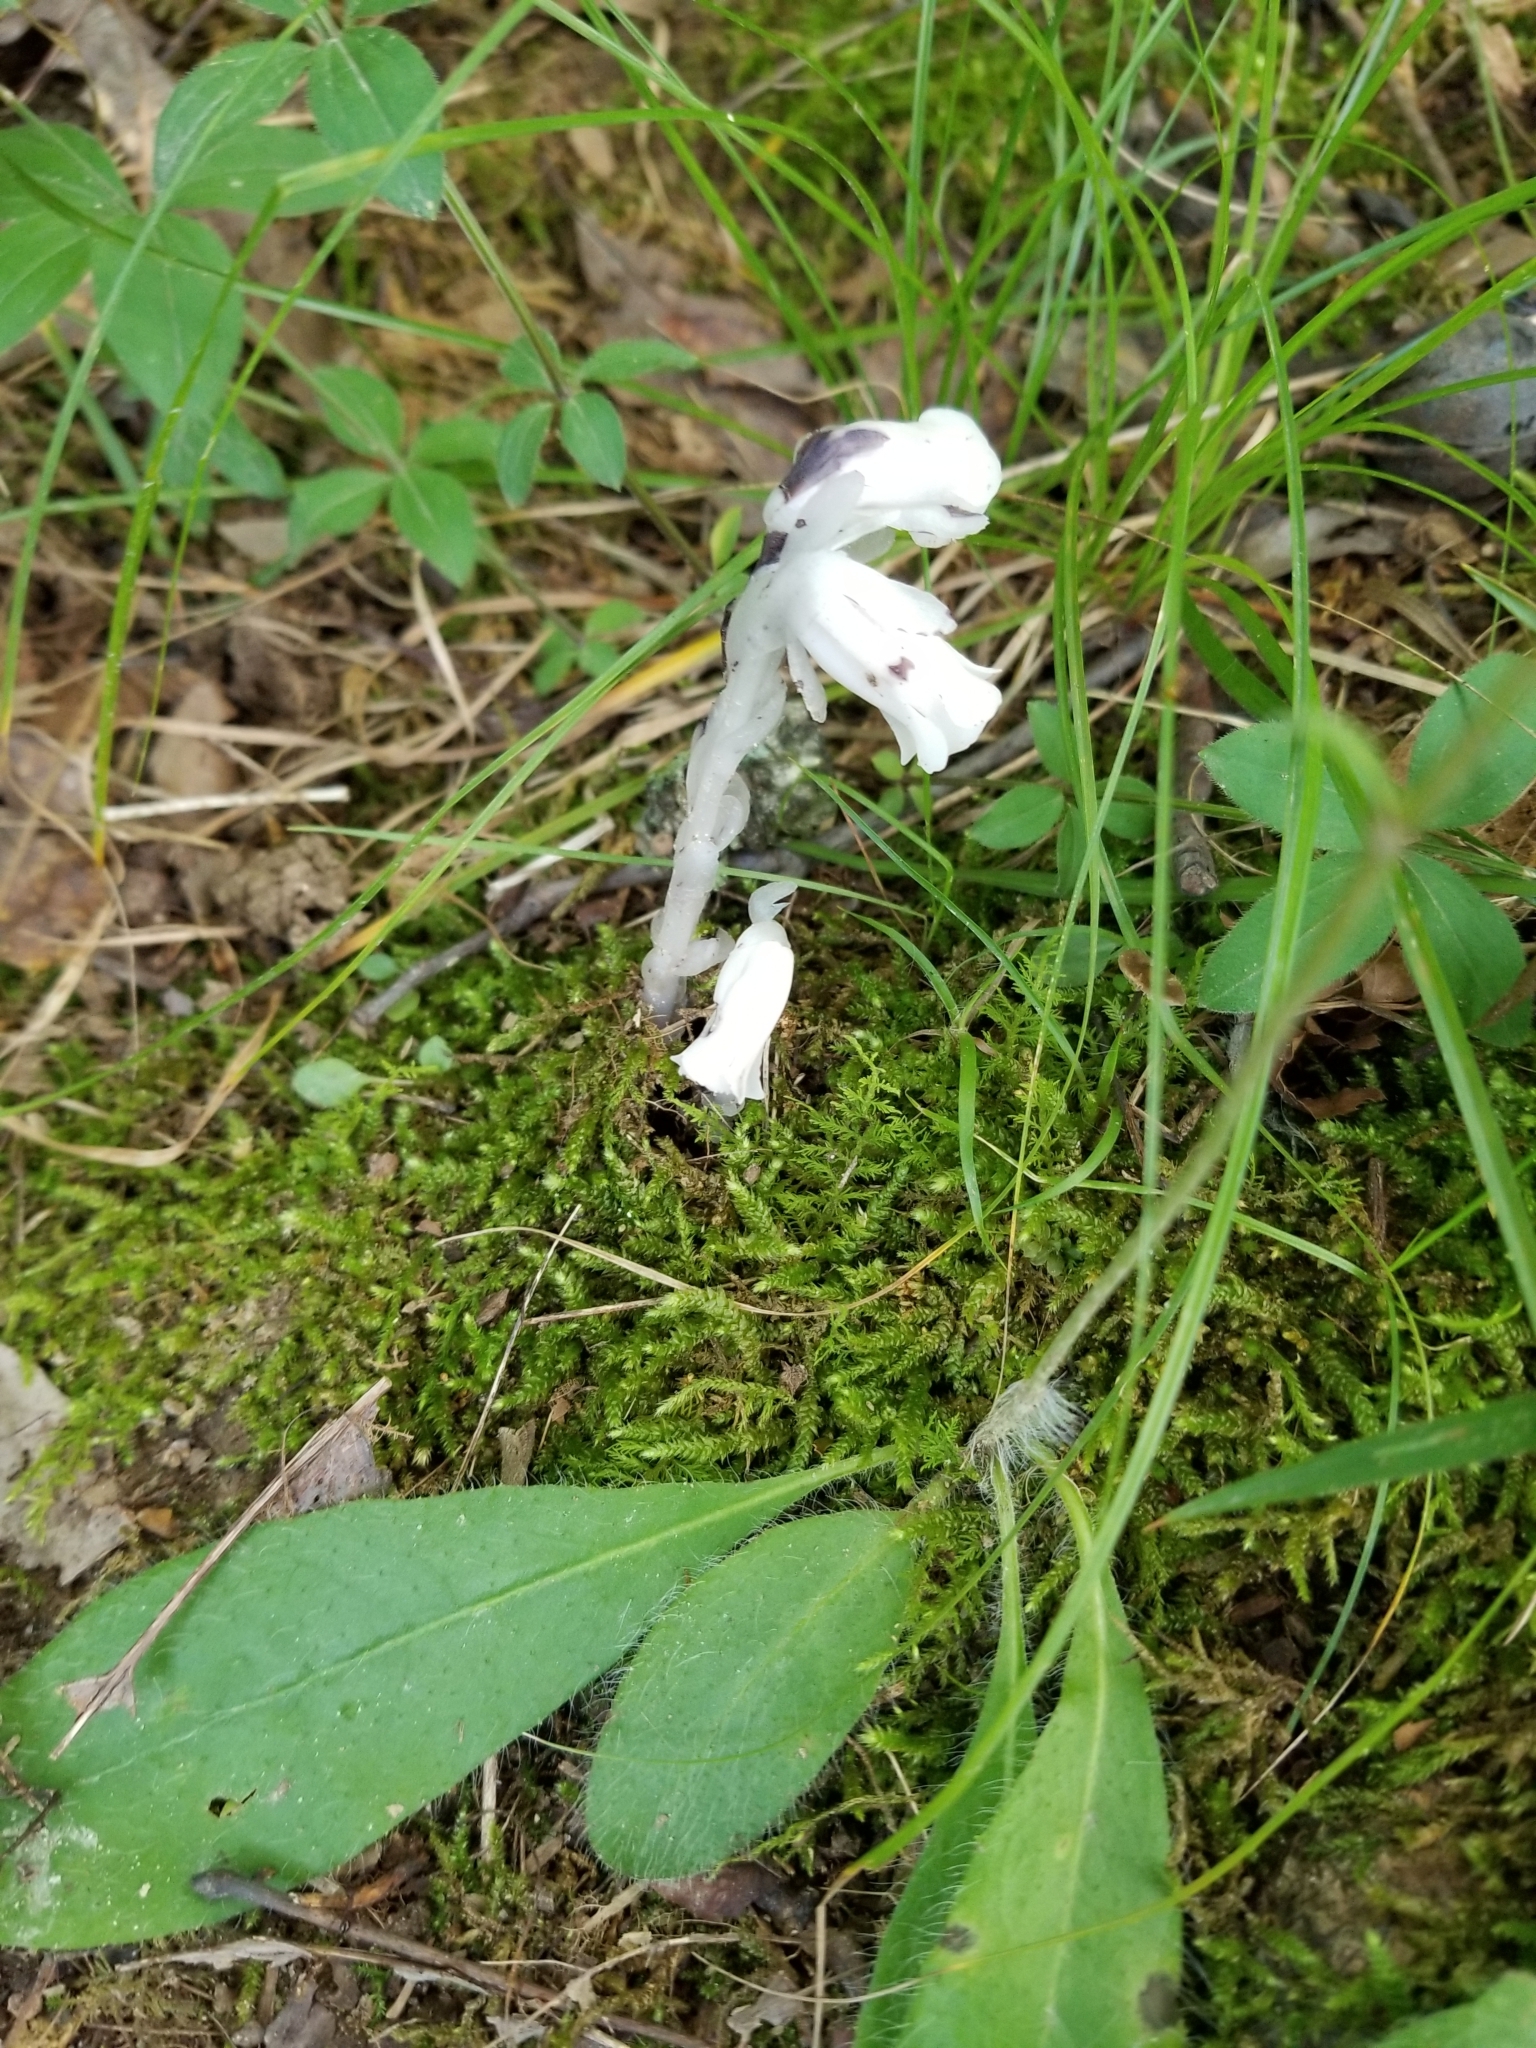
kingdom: Plantae
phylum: Tracheophyta
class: Magnoliopsida
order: Ericales
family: Ericaceae
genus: Monotropa
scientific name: Monotropa uniflora
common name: Convulsion root
